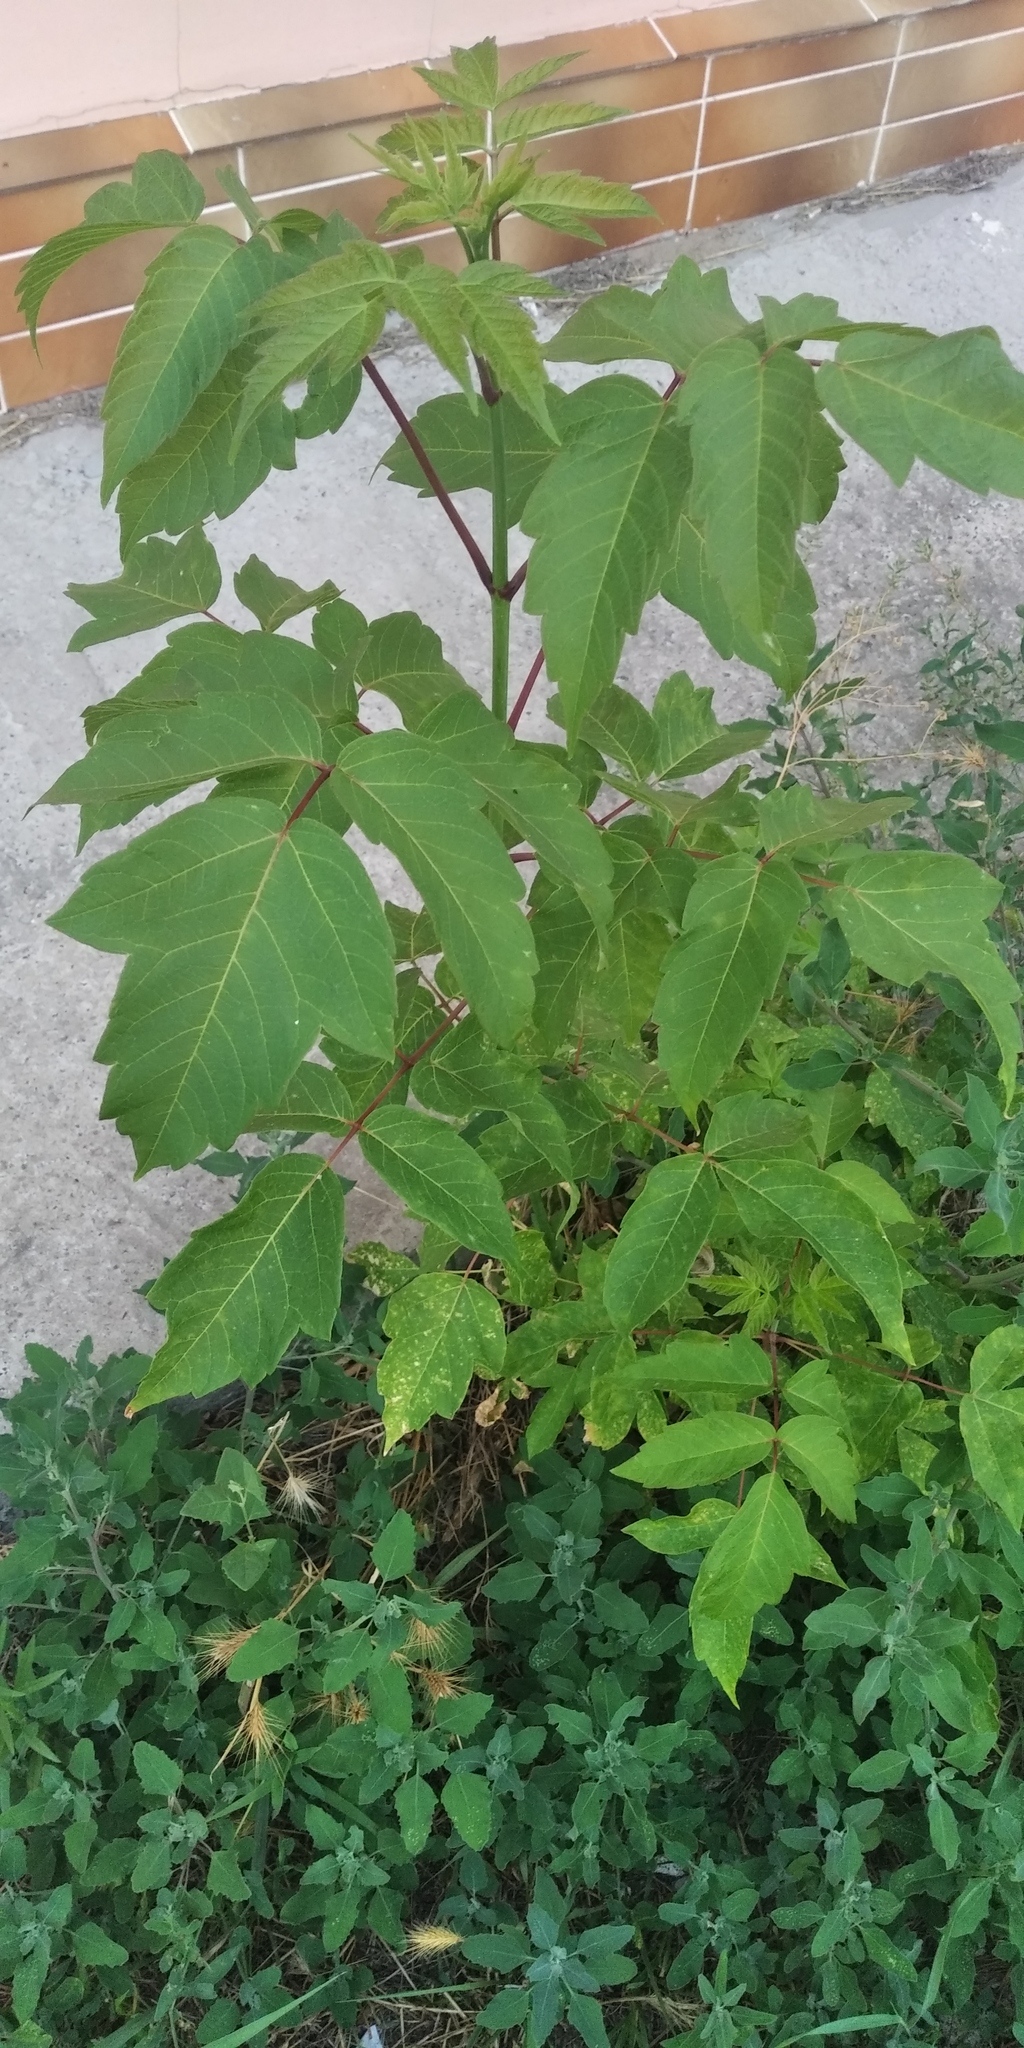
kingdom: Plantae
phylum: Tracheophyta
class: Magnoliopsida
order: Sapindales
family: Sapindaceae
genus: Acer
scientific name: Acer negundo
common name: Ashleaf maple
